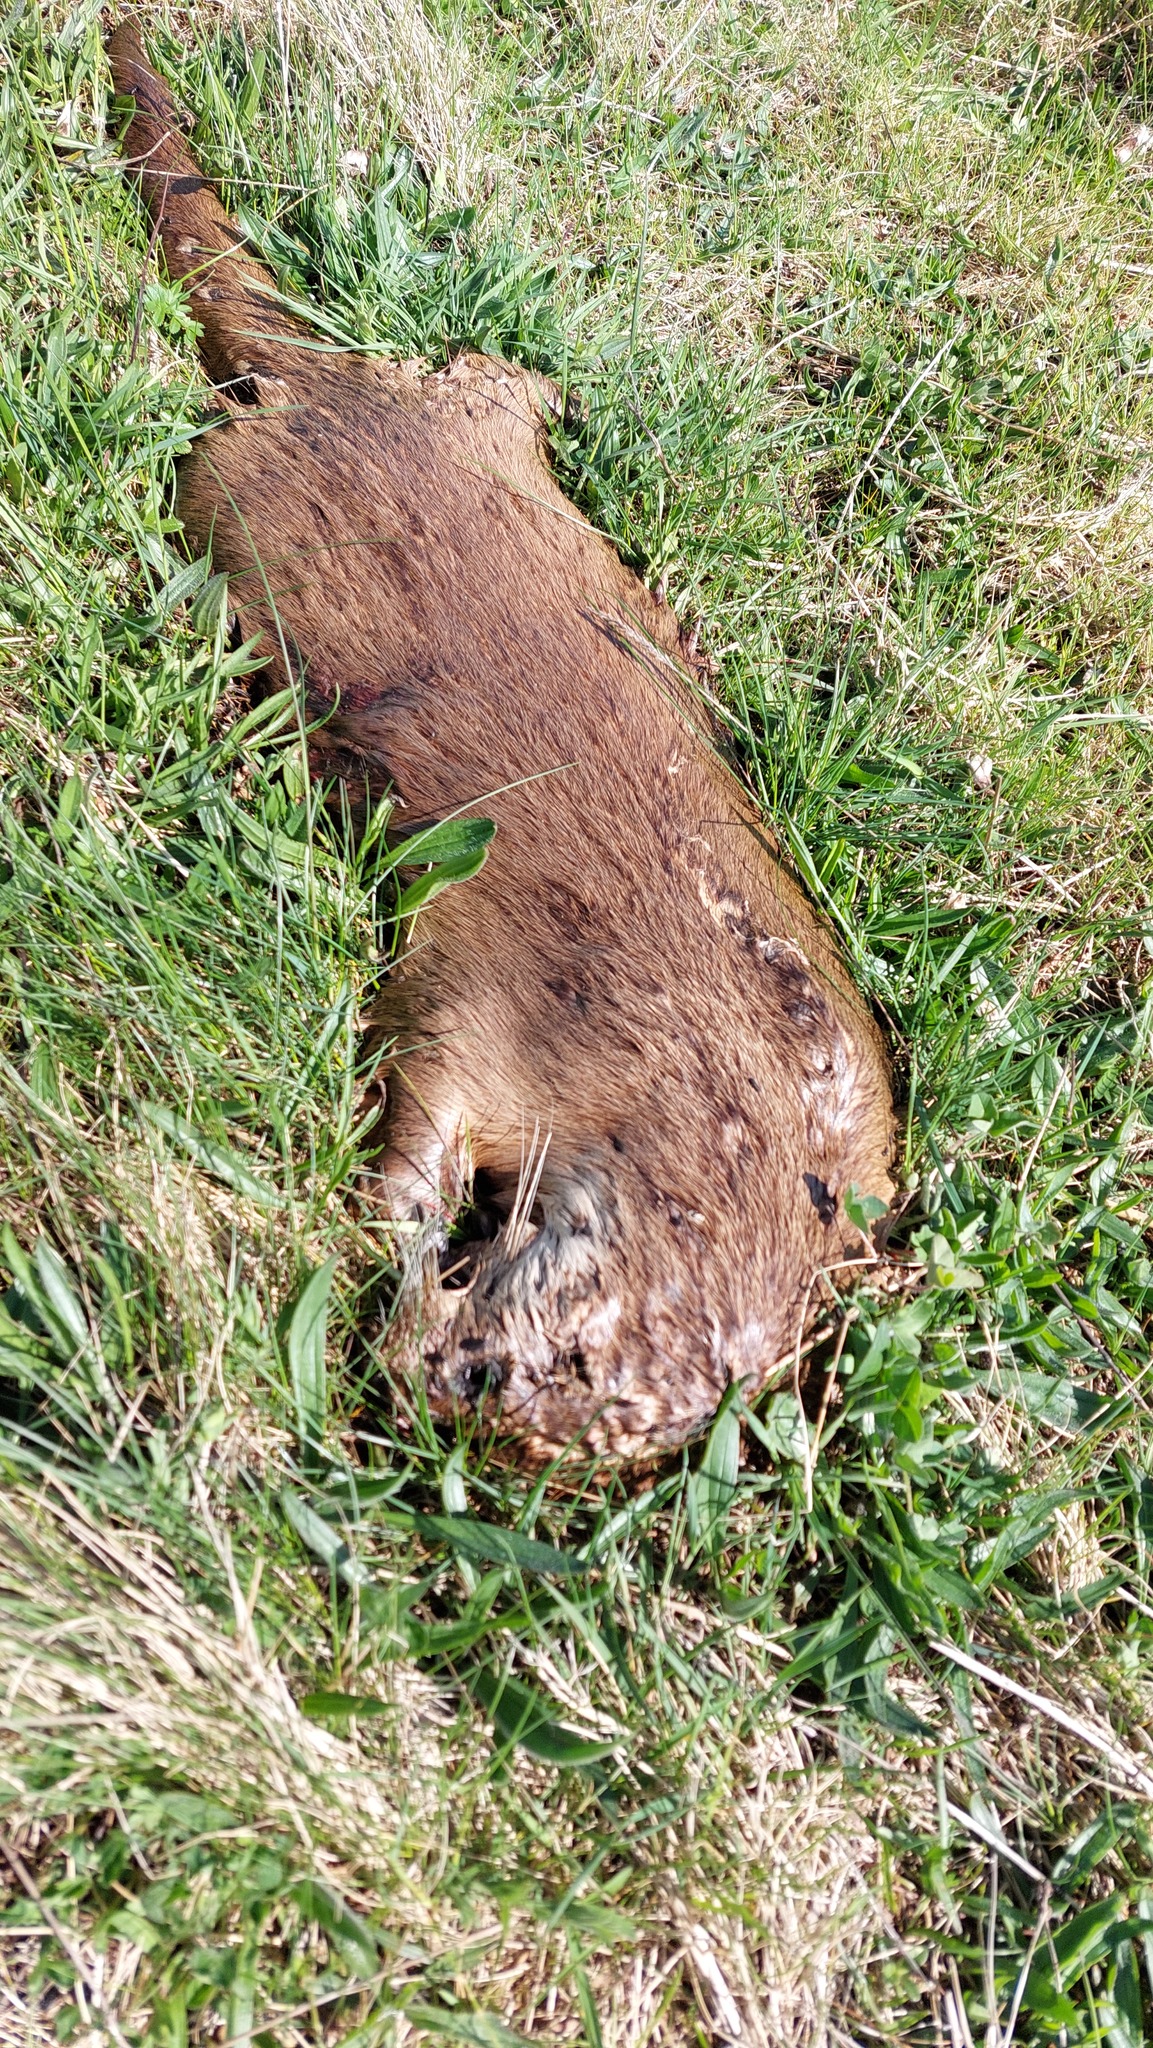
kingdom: Animalia
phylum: Chordata
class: Mammalia
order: Carnivora
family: Mustelidae
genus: Lutra
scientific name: Lutra lutra
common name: European otter
